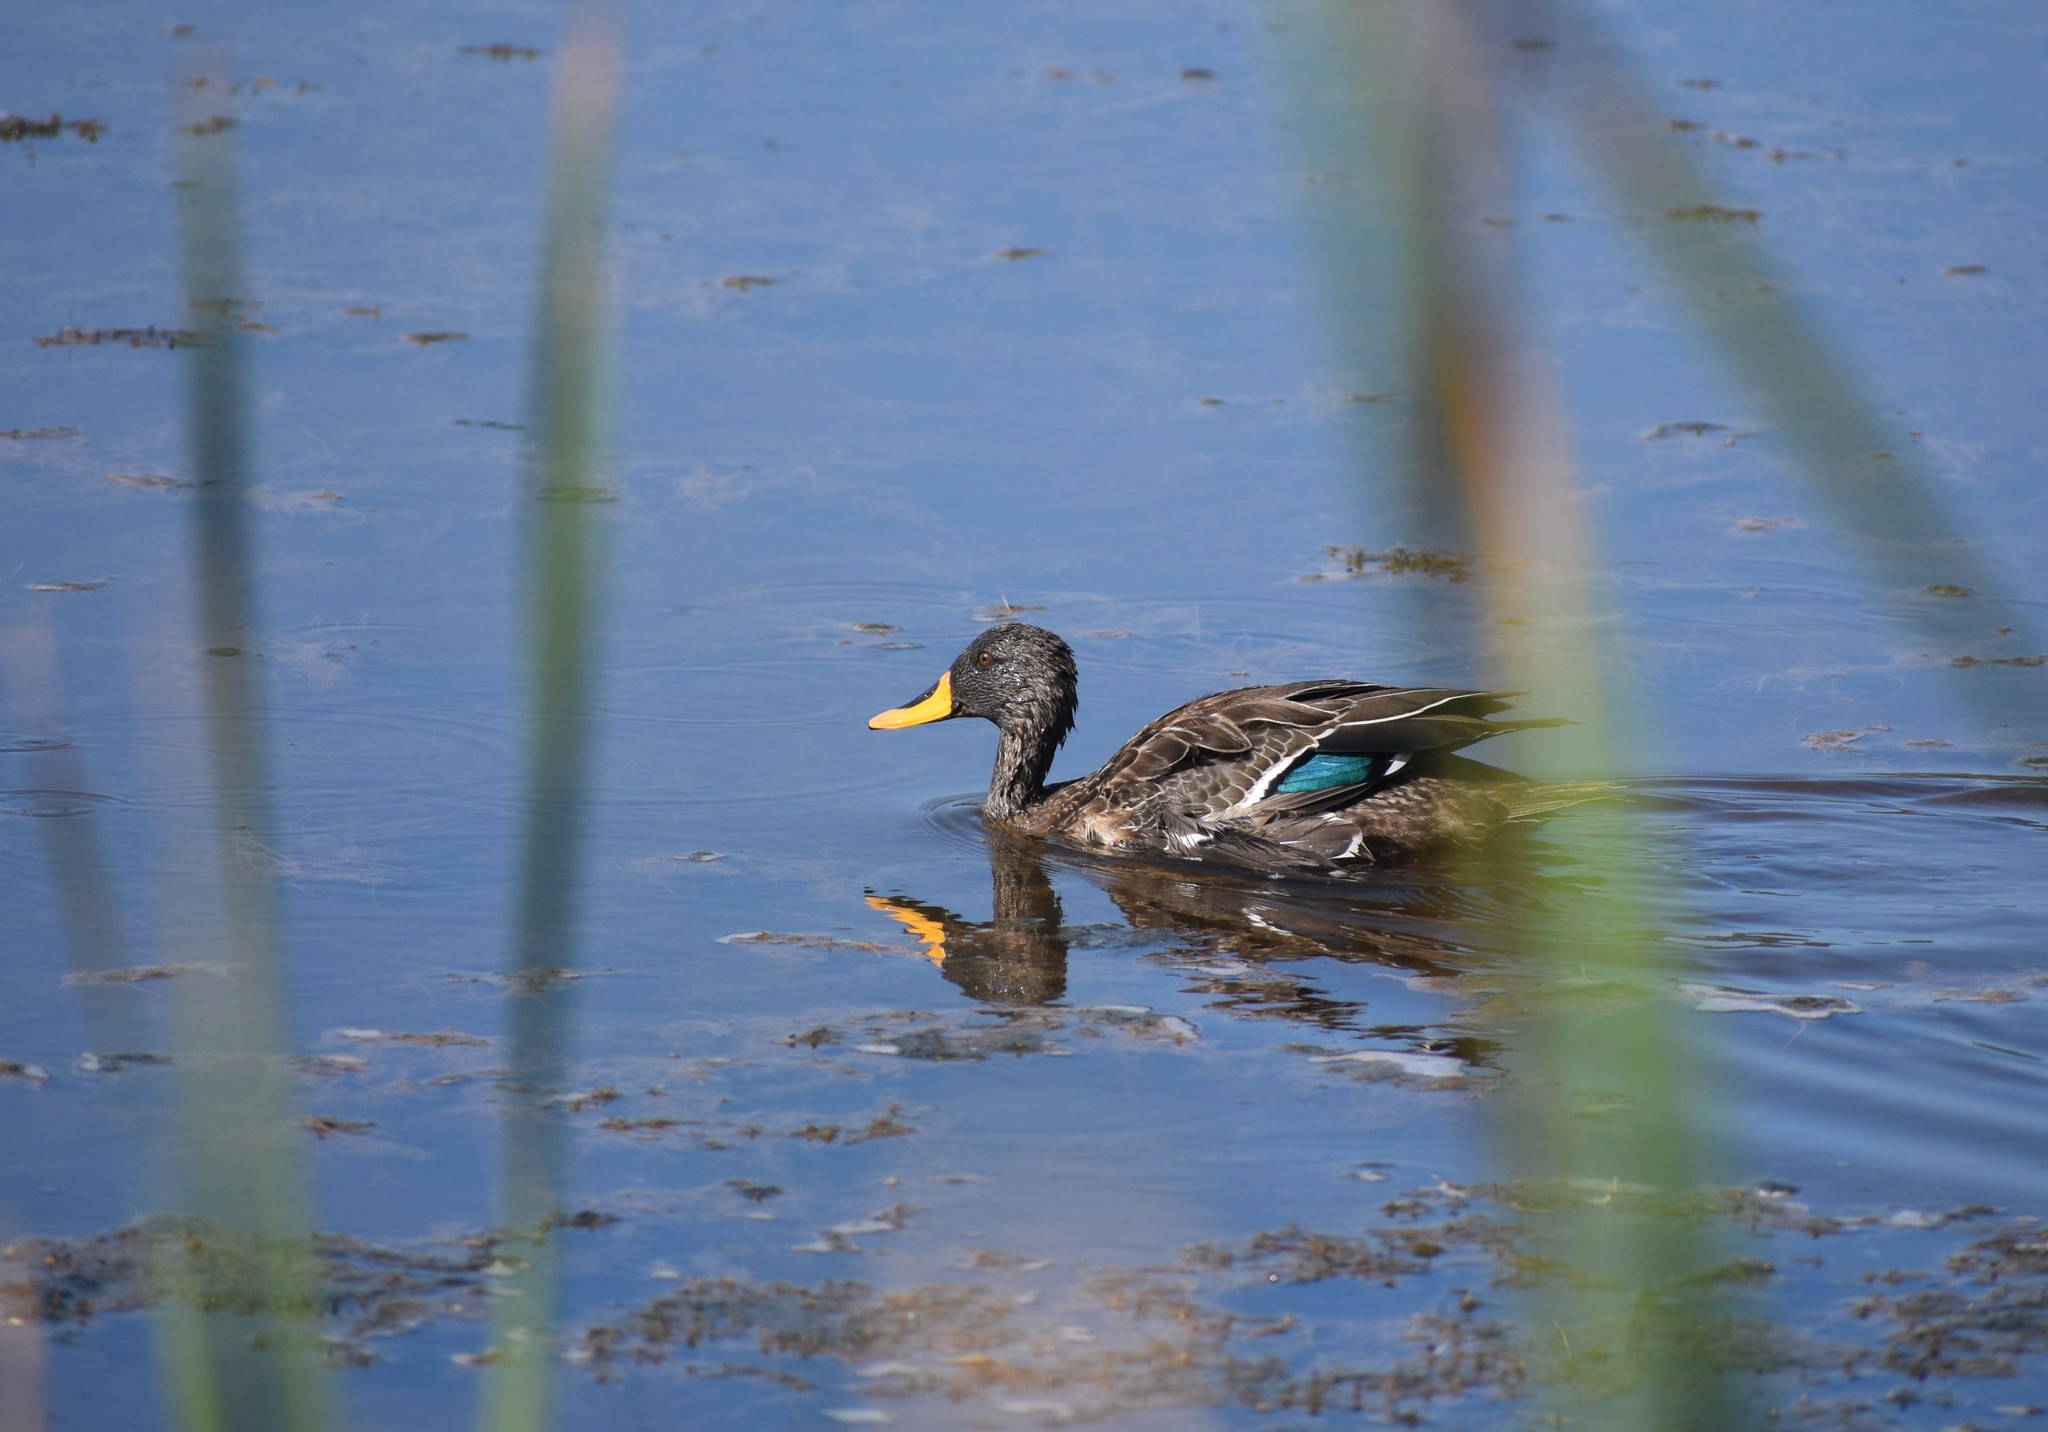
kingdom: Animalia
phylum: Chordata
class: Aves
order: Anseriformes
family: Anatidae
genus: Anas
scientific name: Anas undulata
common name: Yellow-billed duck
